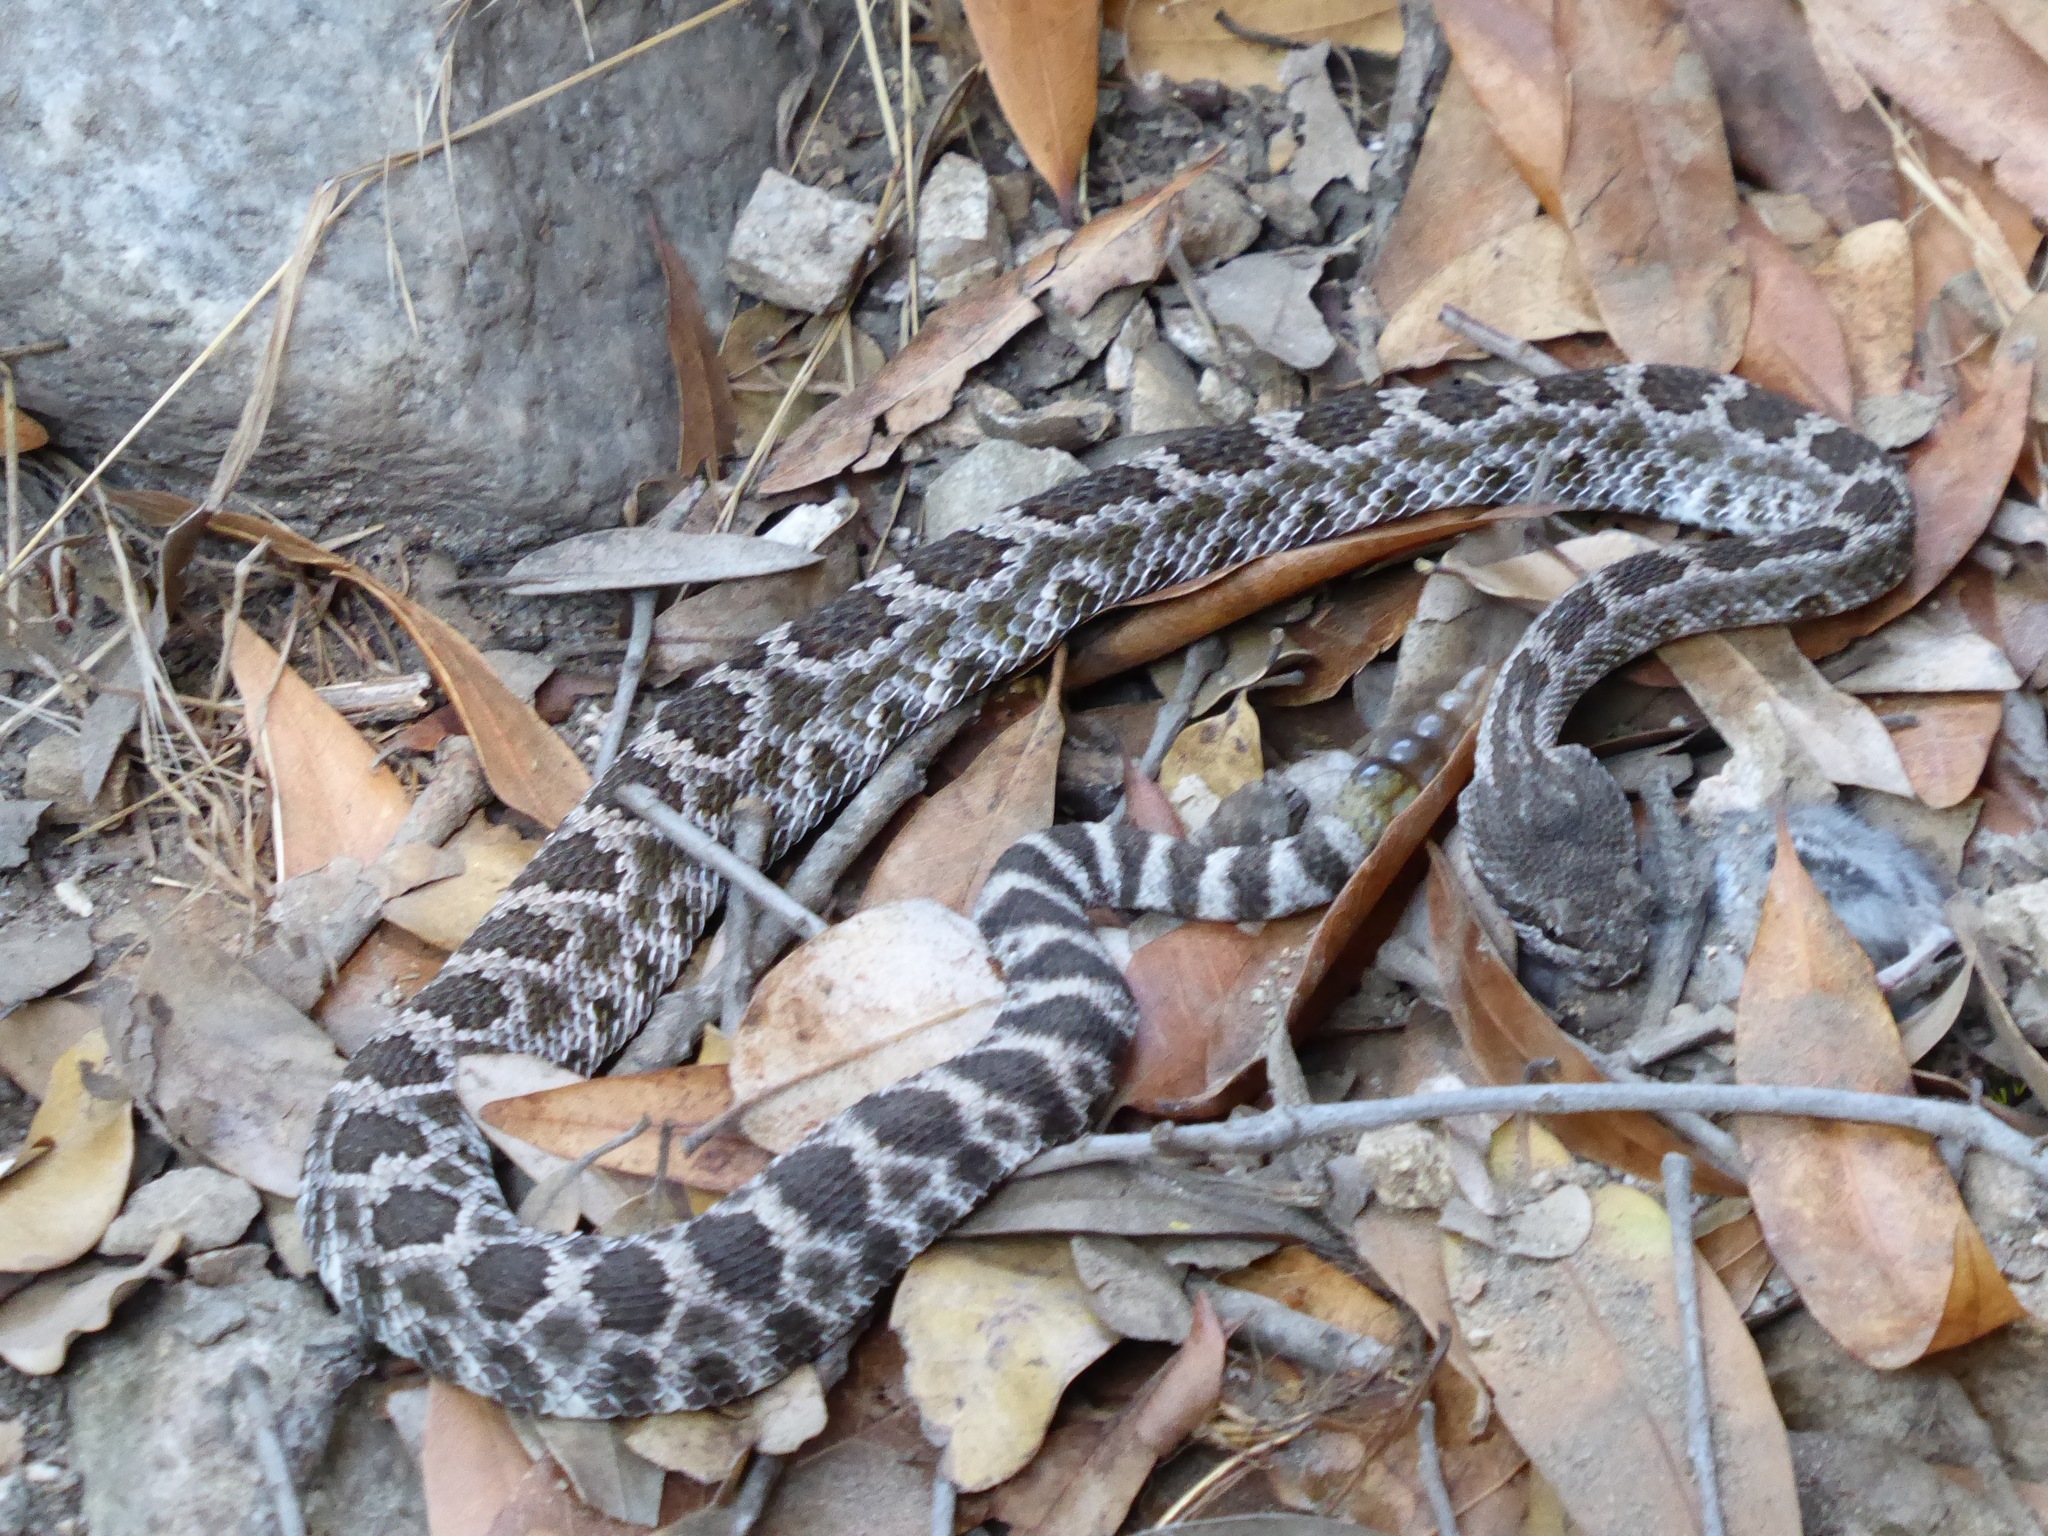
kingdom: Animalia
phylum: Chordata
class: Squamata
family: Viperidae
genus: Crotalus
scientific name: Crotalus oreganus
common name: Abyssus
